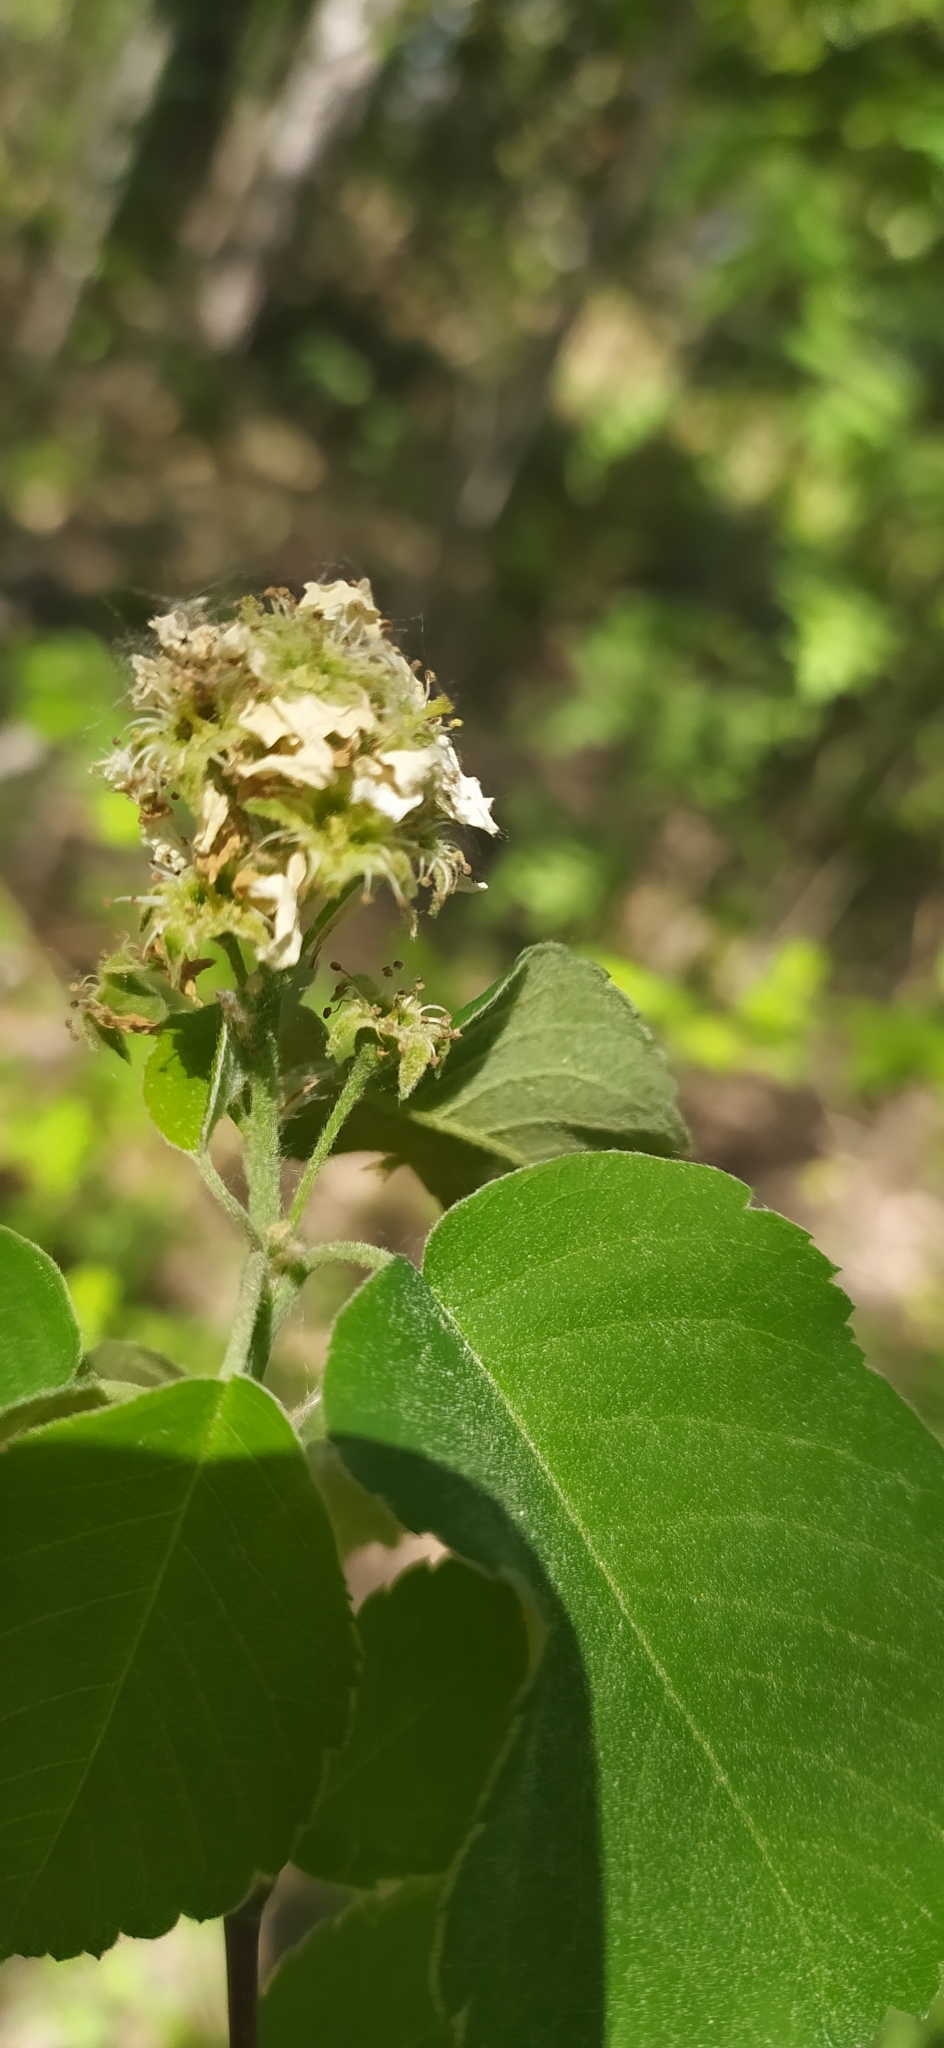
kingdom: Plantae
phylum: Tracheophyta
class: Magnoliopsida
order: Rosales
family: Rosaceae
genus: Amelanchier
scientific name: Amelanchier alnifolia
